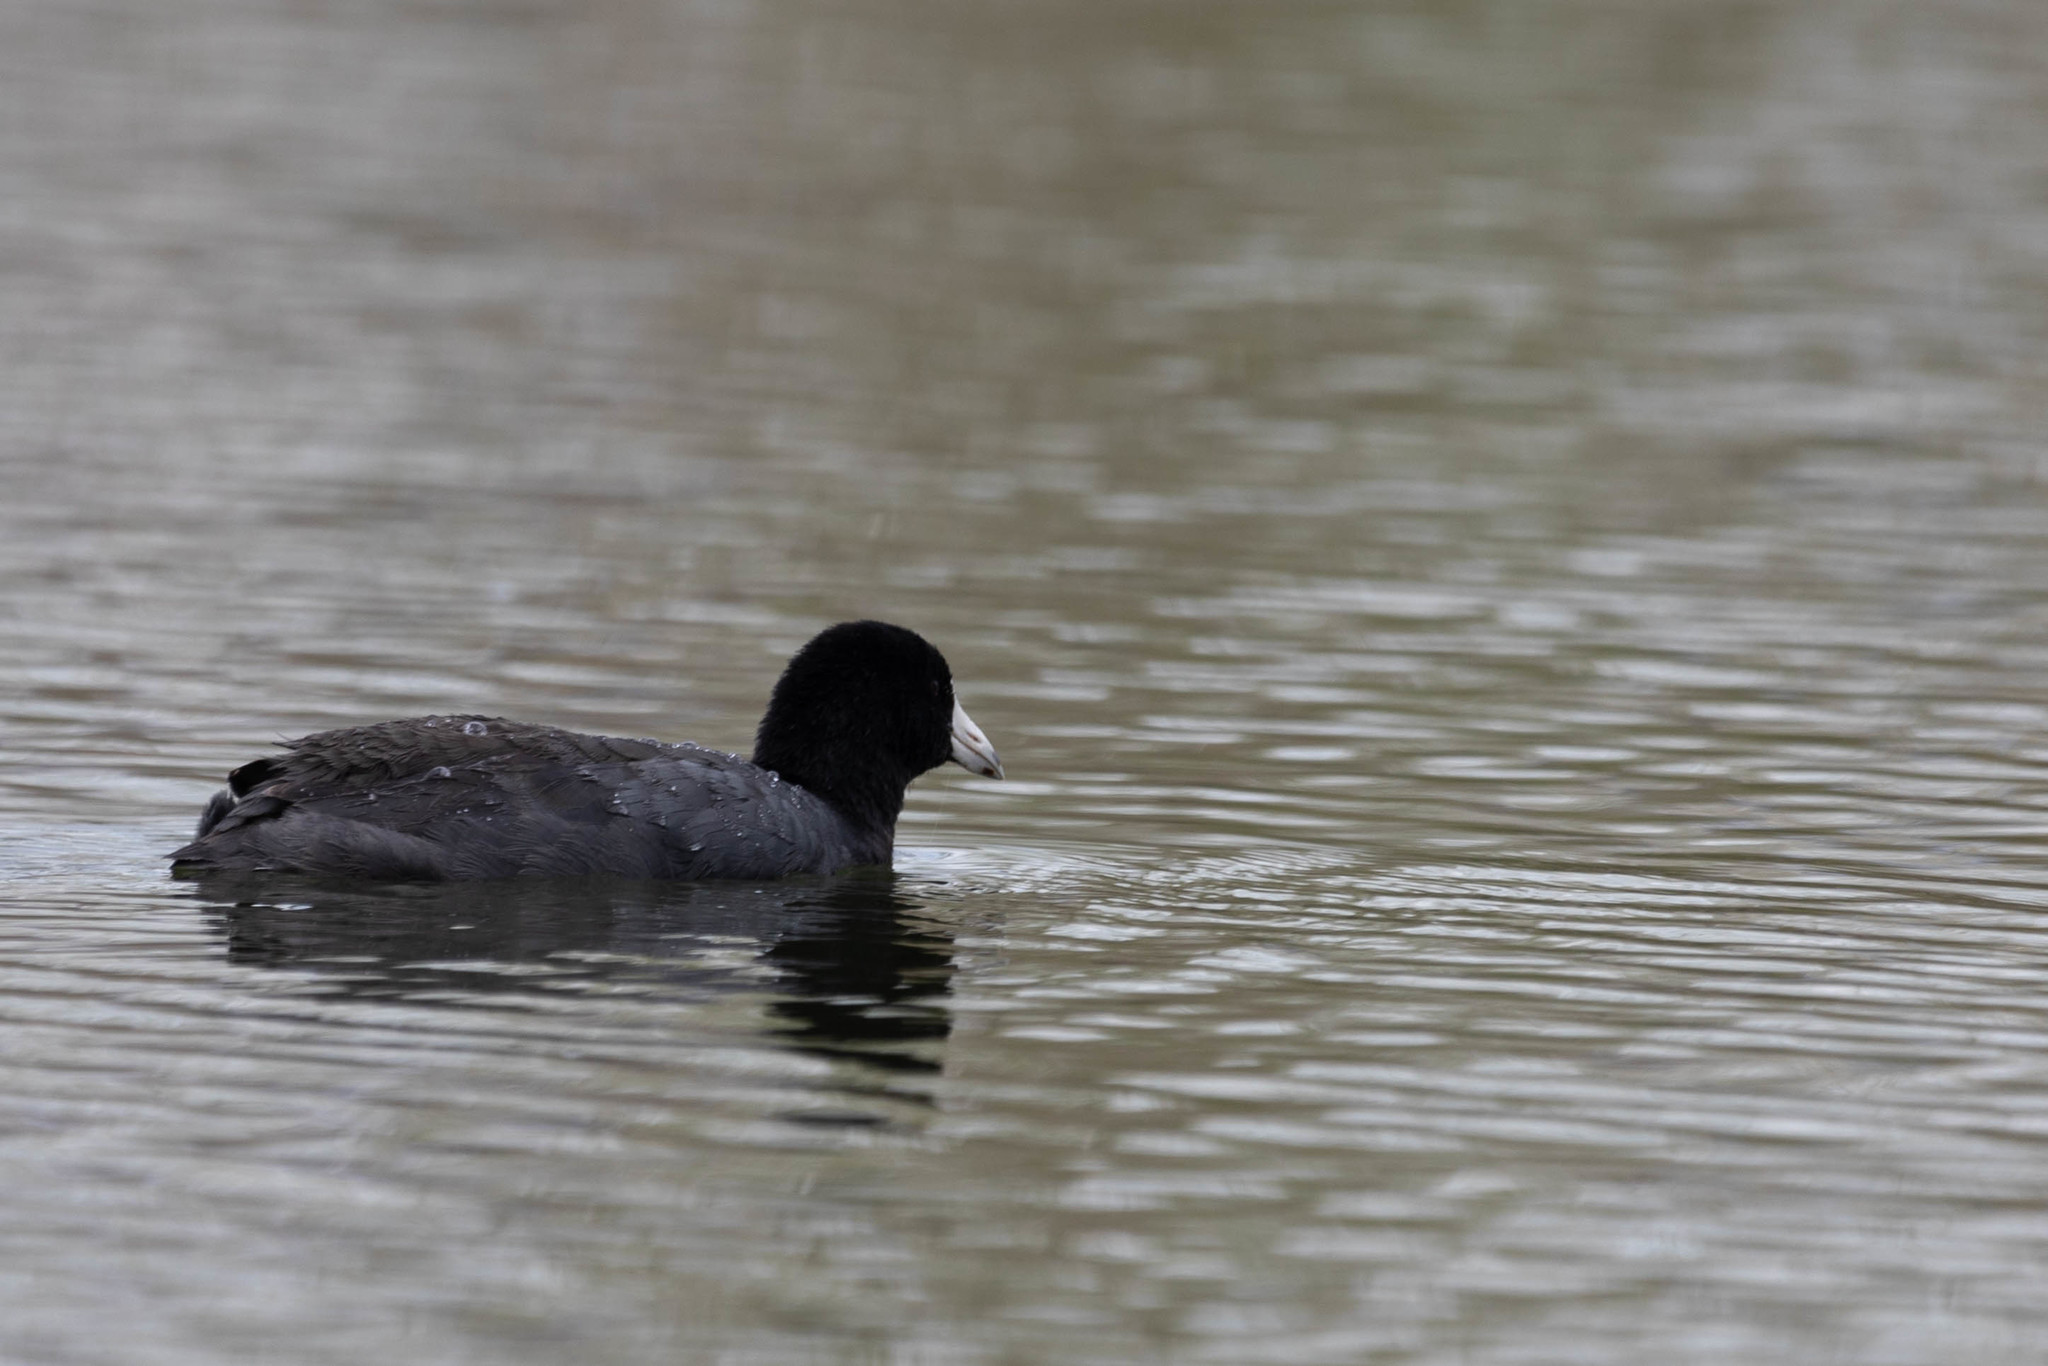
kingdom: Animalia
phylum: Chordata
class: Aves
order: Gruiformes
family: Rallidae
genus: Fulica
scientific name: Fulica americana
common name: American coot
